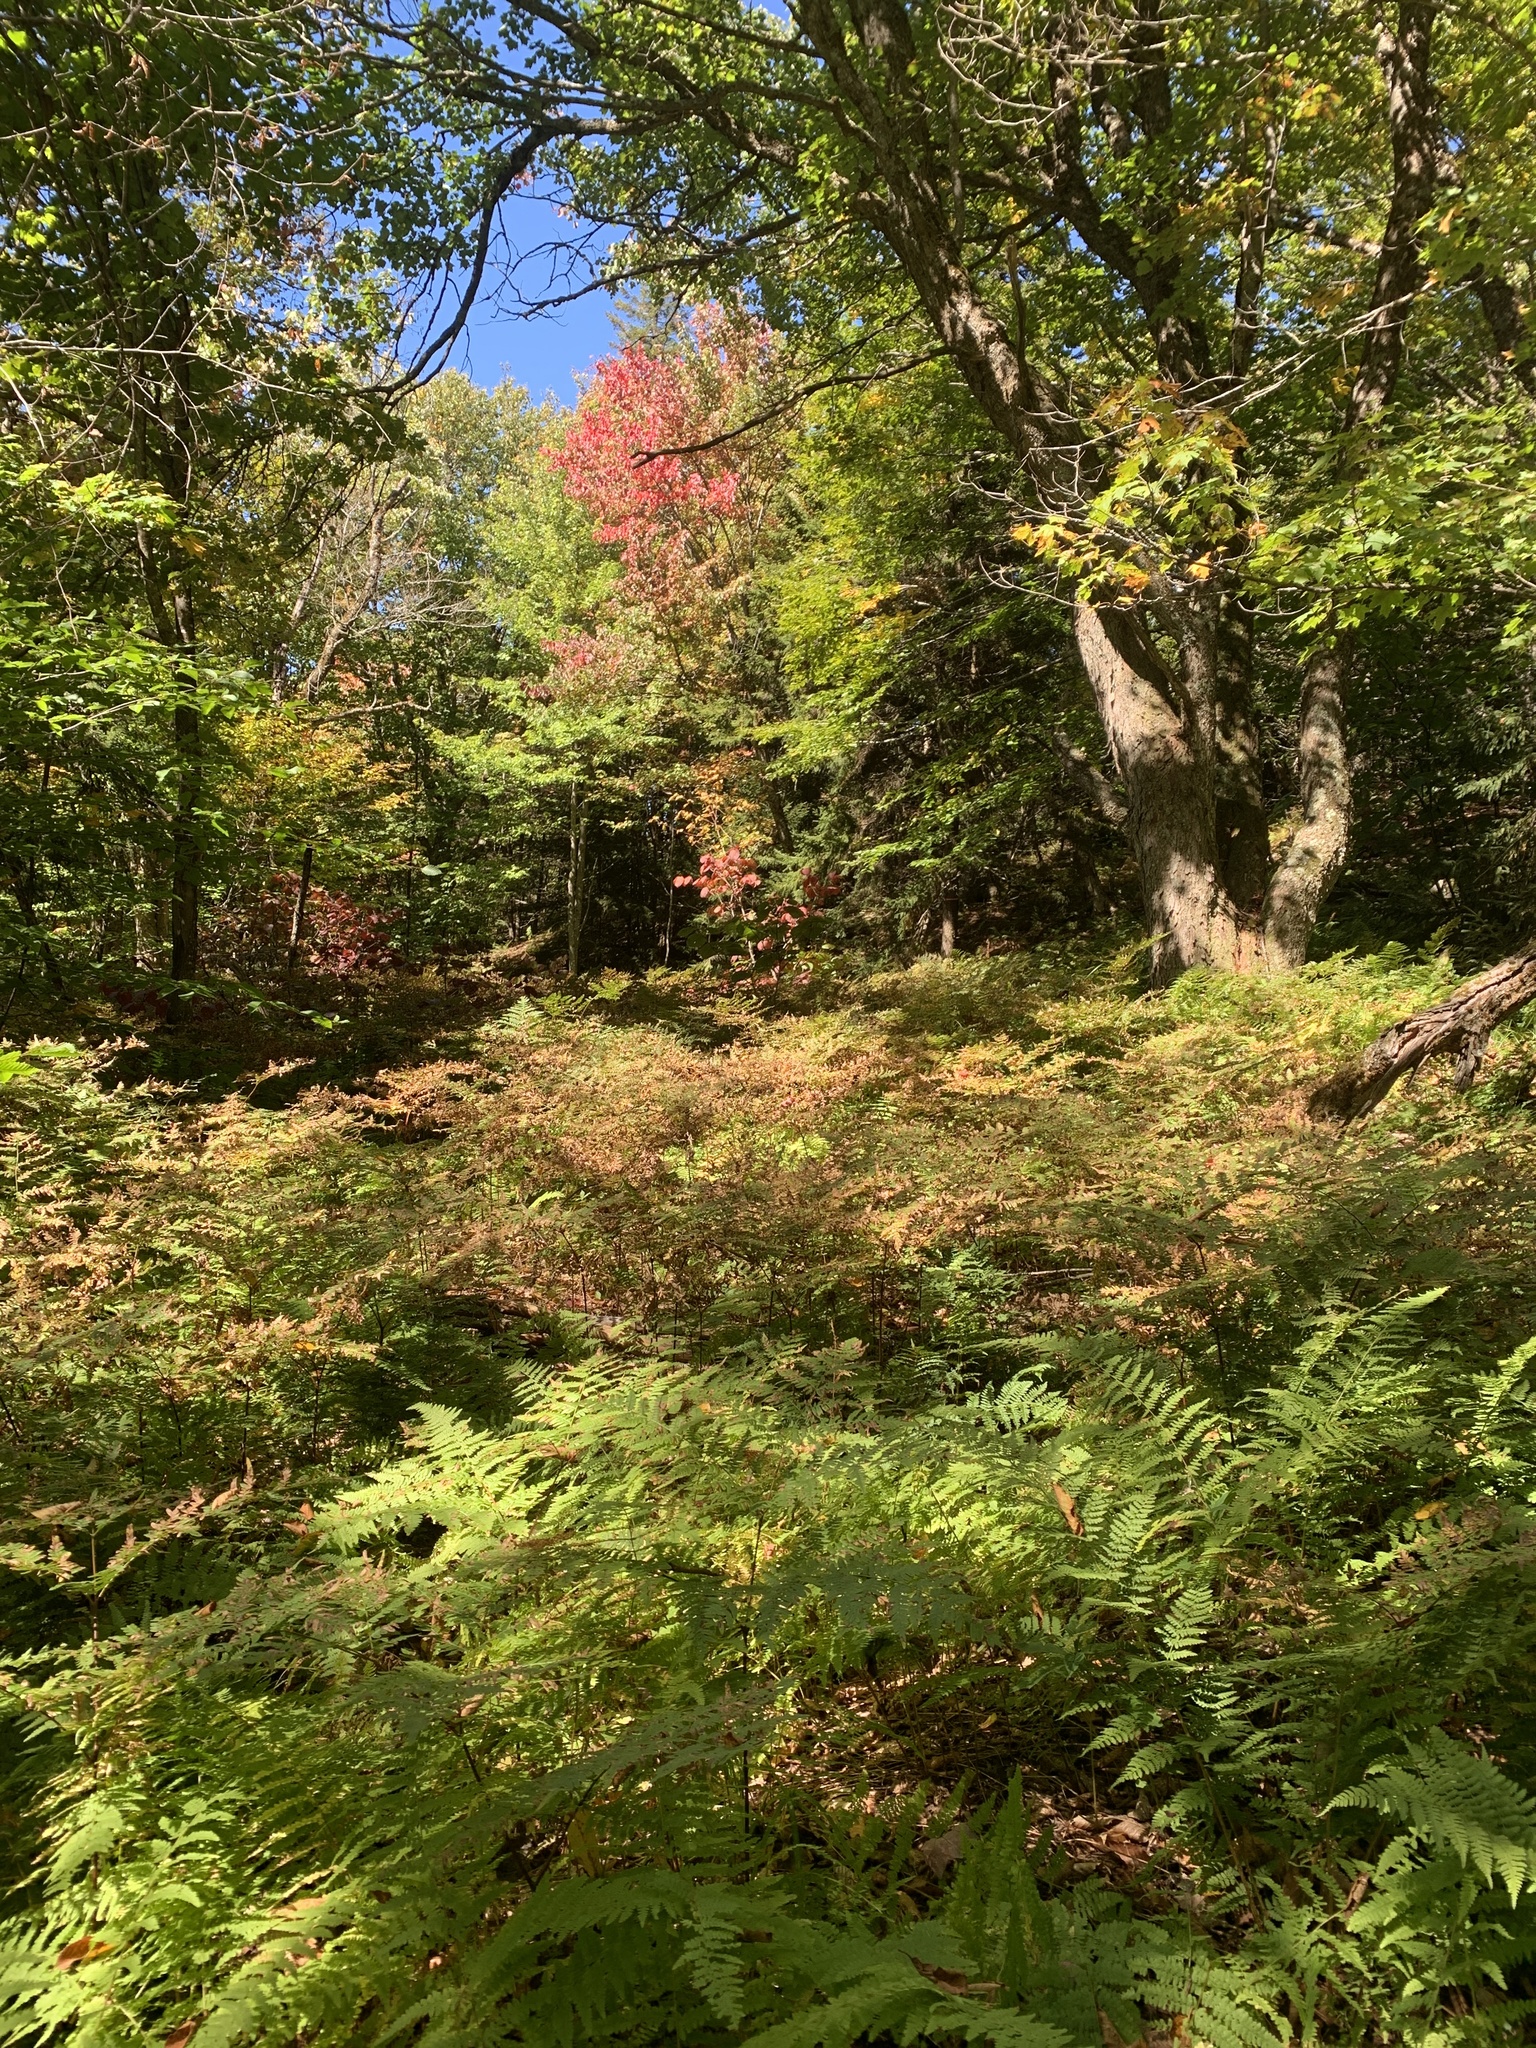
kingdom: Plantae
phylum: Tracheophyta
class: Polypodiopsida
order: Polypodiales
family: Dennstaedtiaceae
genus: Pteridium
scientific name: Pteridium aquilinum
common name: Bracken
